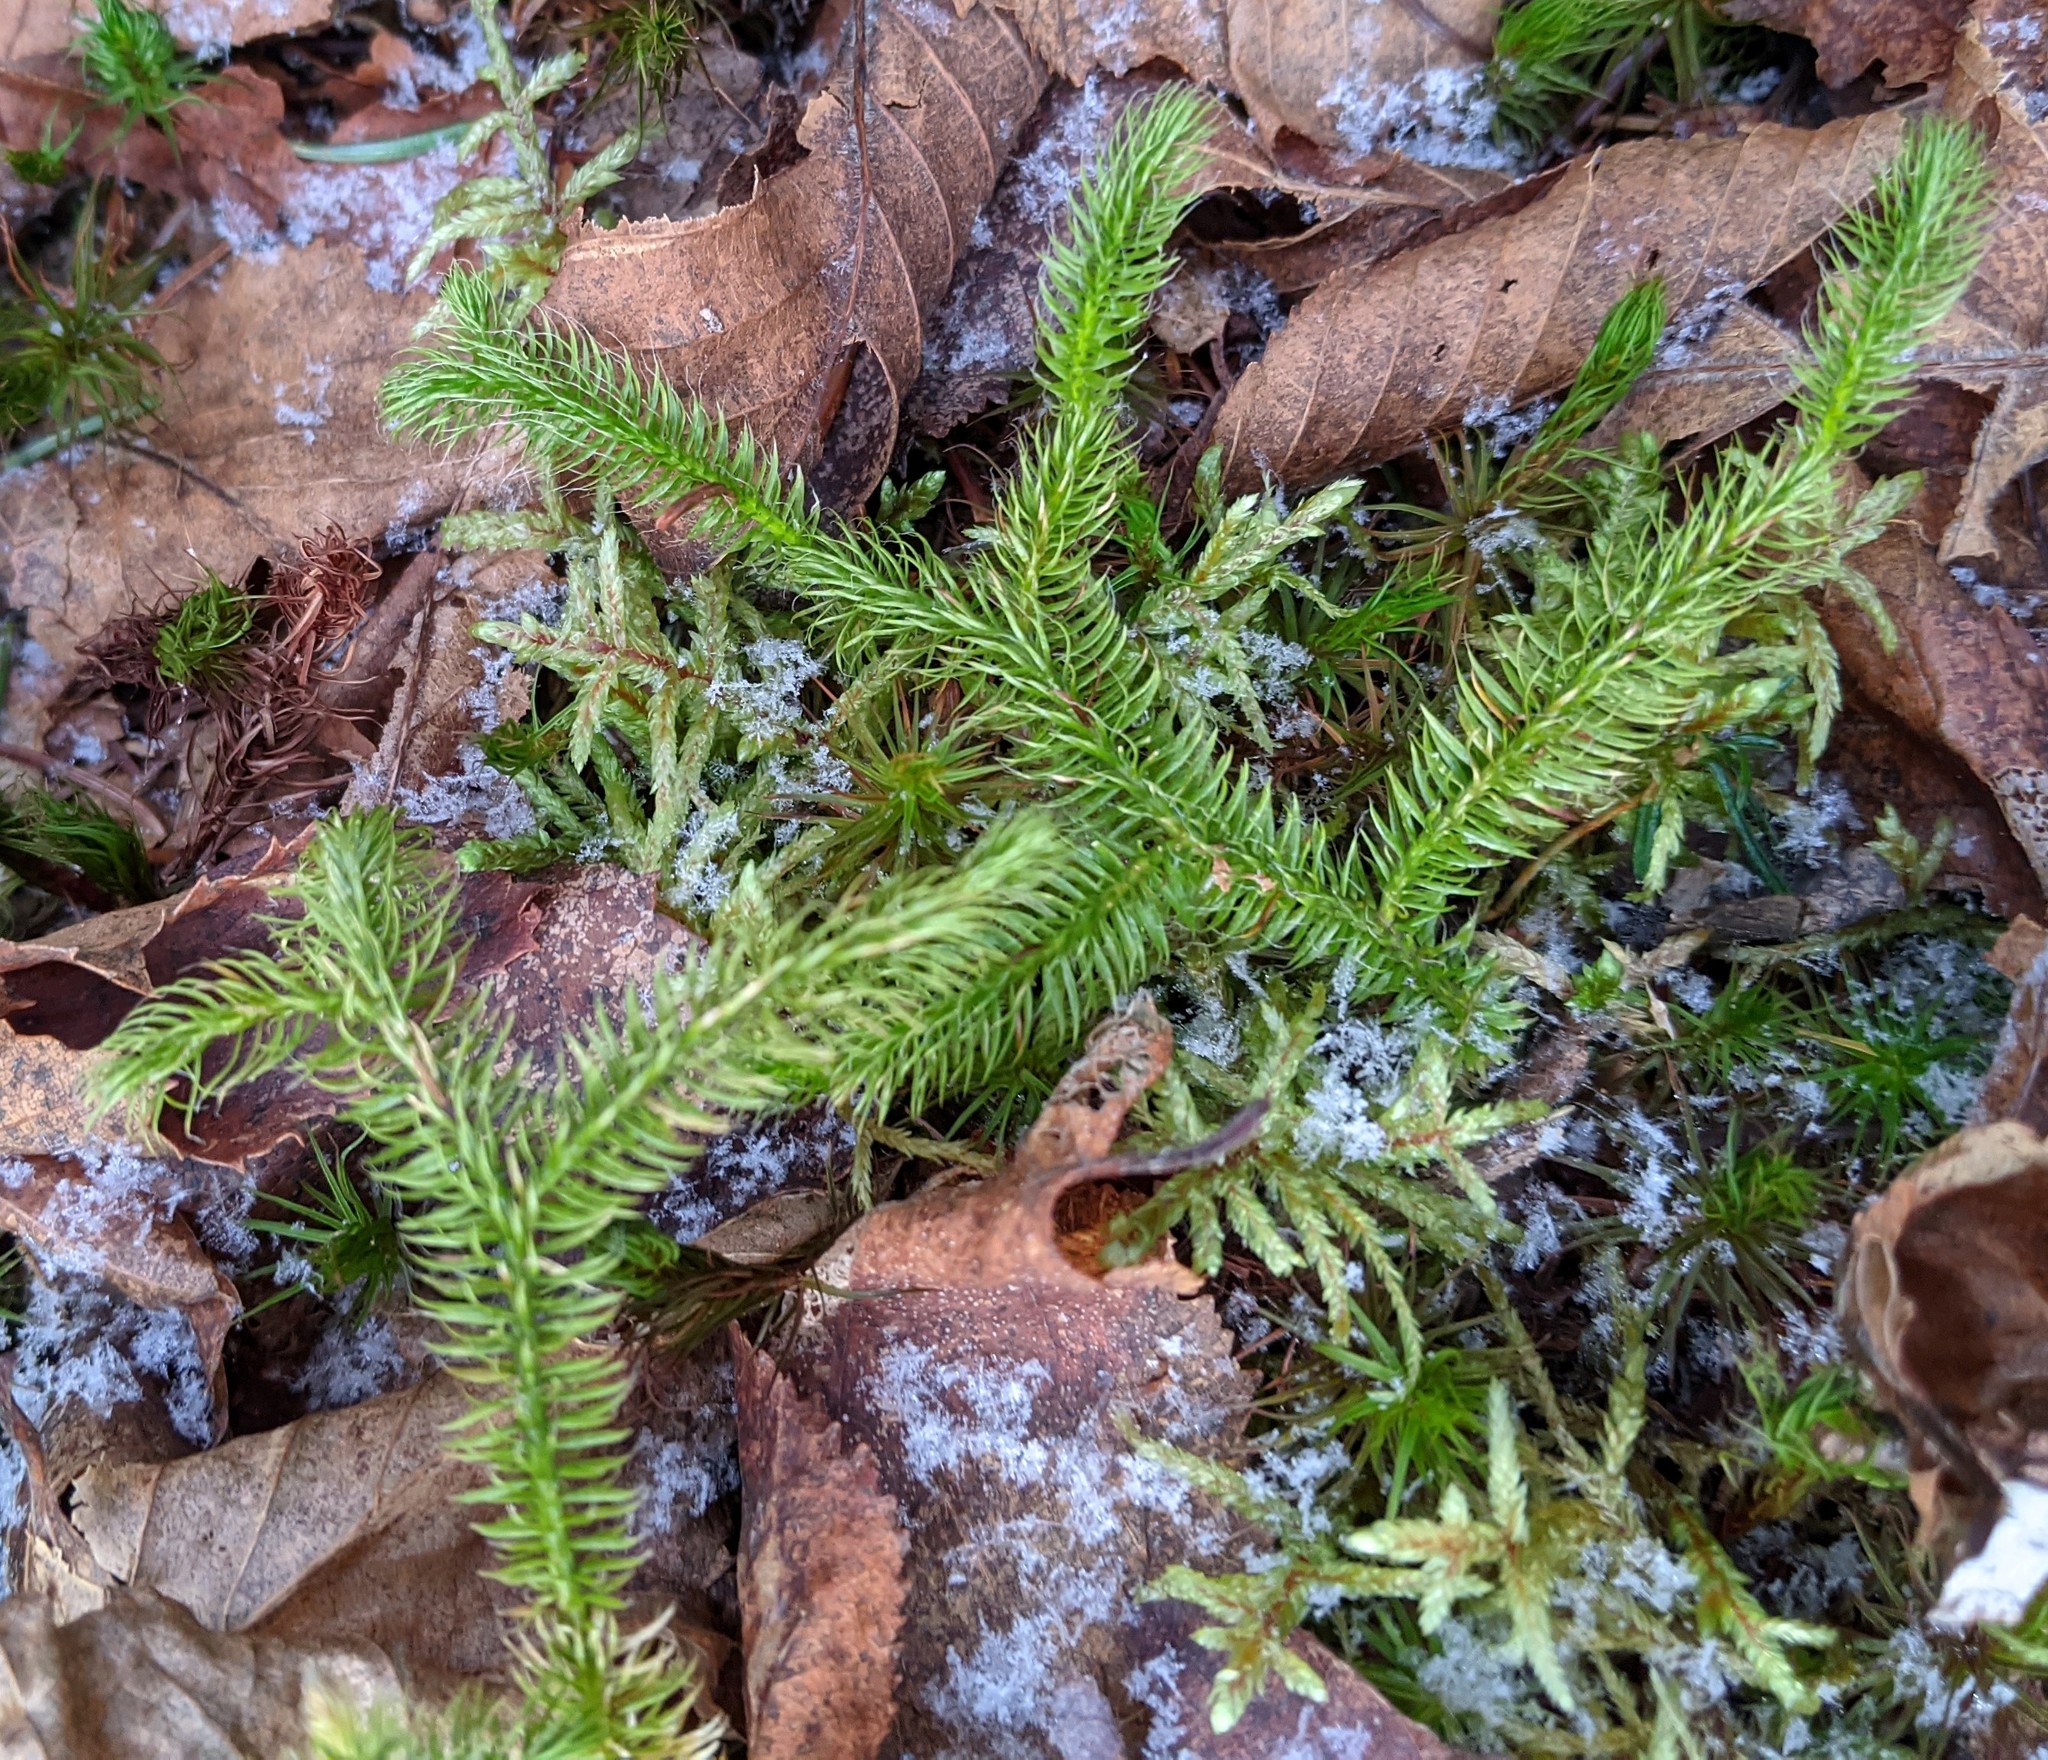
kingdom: Plantae
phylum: Tracheophyta
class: Lycopodiopsida
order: Lycopodiales
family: Lycopodiaceae
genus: Lycopodium
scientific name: Lycopodium clavatum
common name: Stag's-horn clubmoss
